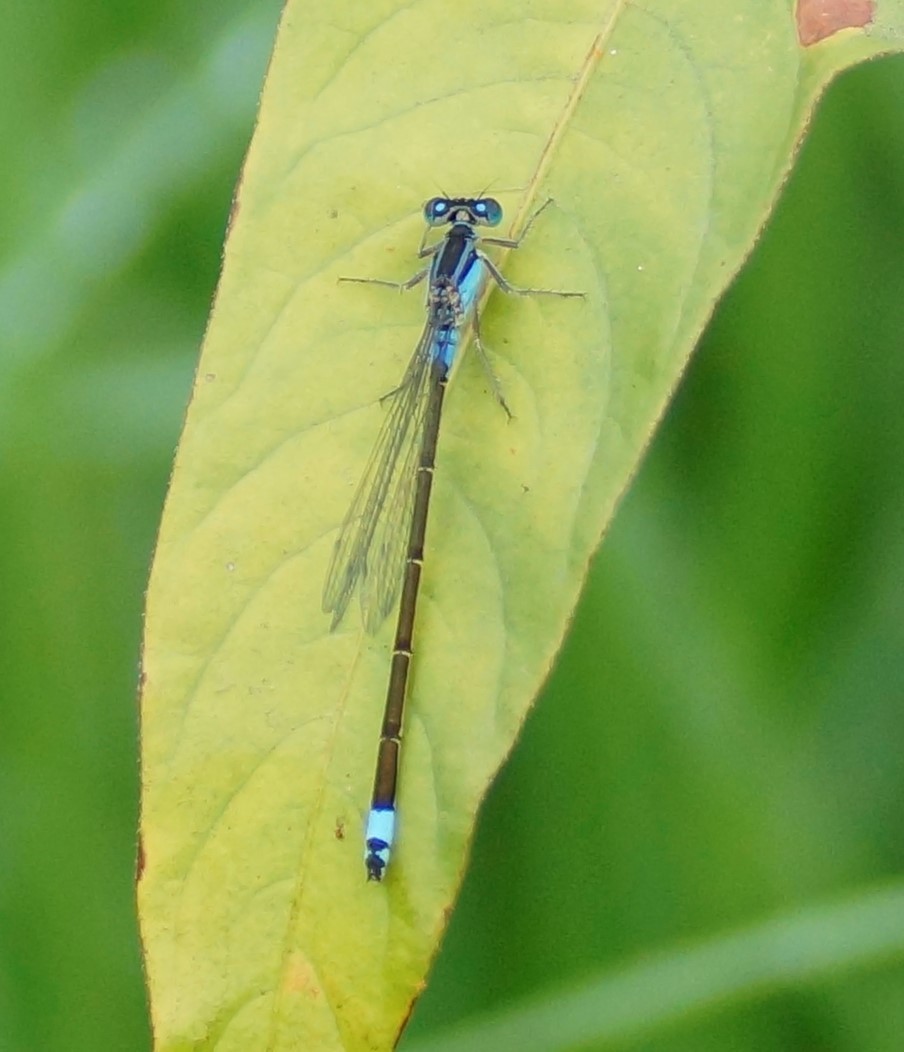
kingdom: Animalia
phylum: Arthropoda
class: Insecta
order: Odonata
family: Coenagrionidae
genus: Ischnura
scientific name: Ischnura heterosticta
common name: Common bluetail
